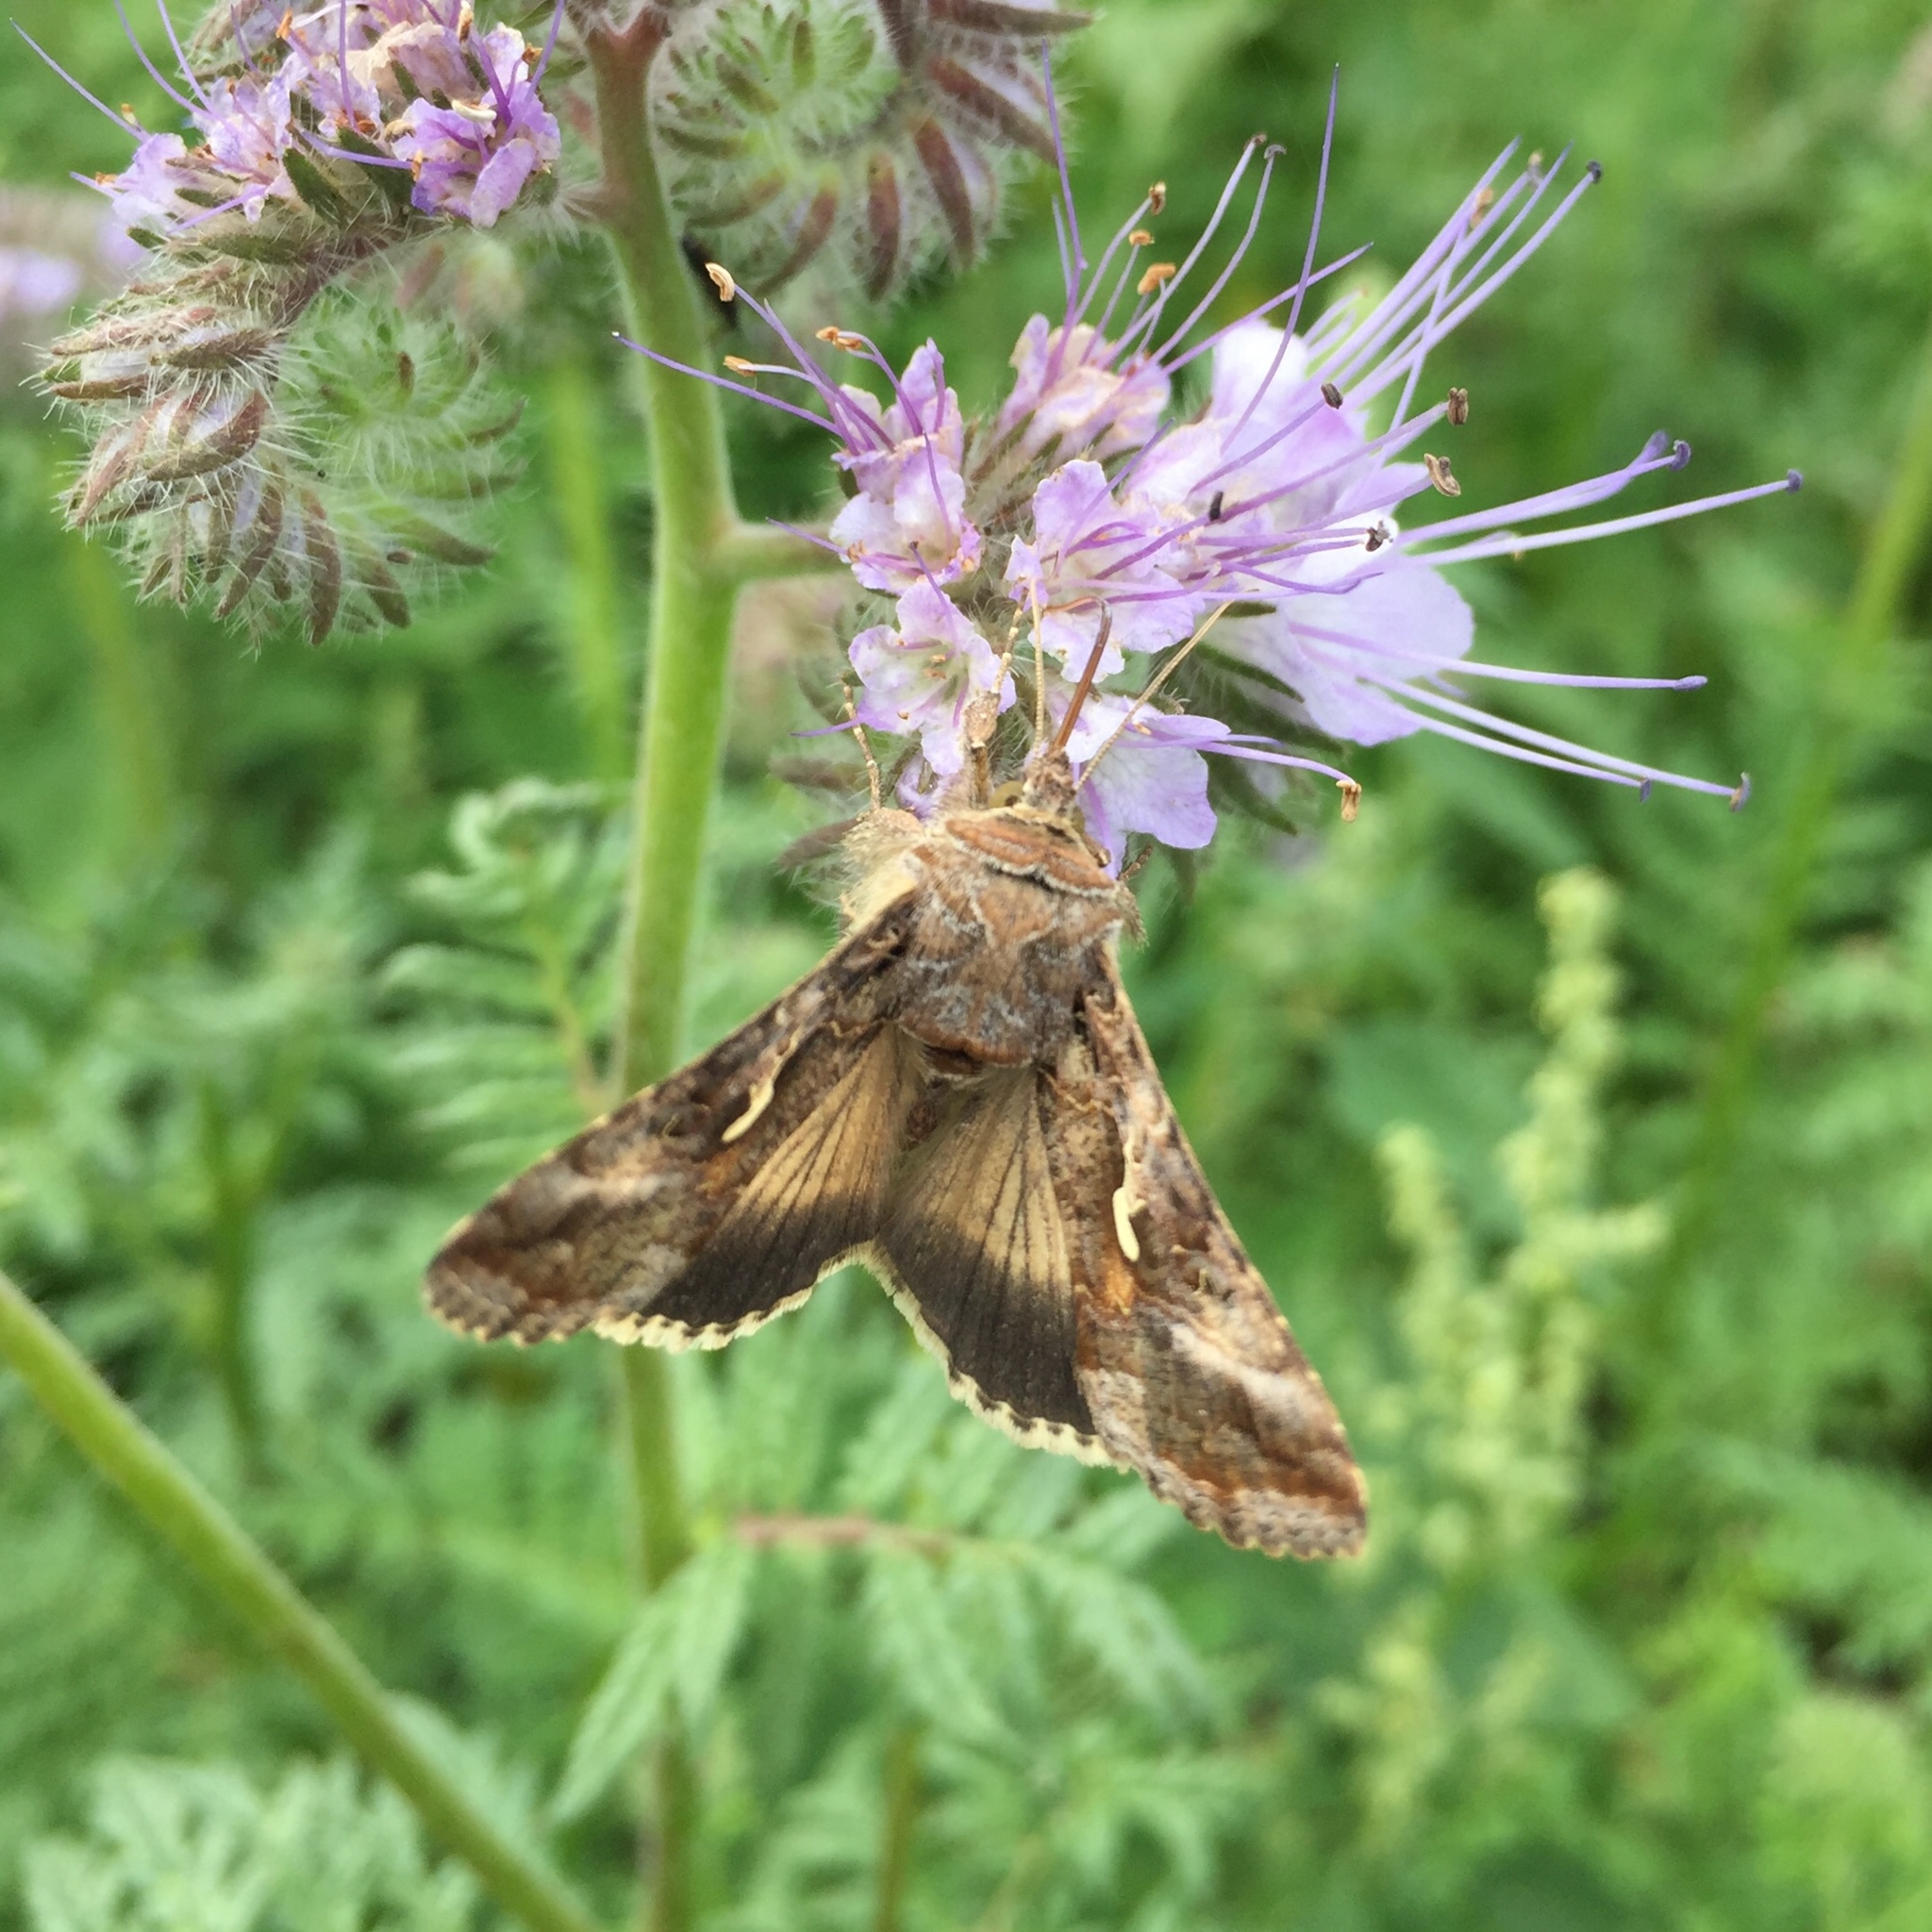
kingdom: Animalia
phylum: Arthropoda
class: Insecta
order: Lepidoptera
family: Noctuidae
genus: Autographa
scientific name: Autographa gamma
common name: Silver y
